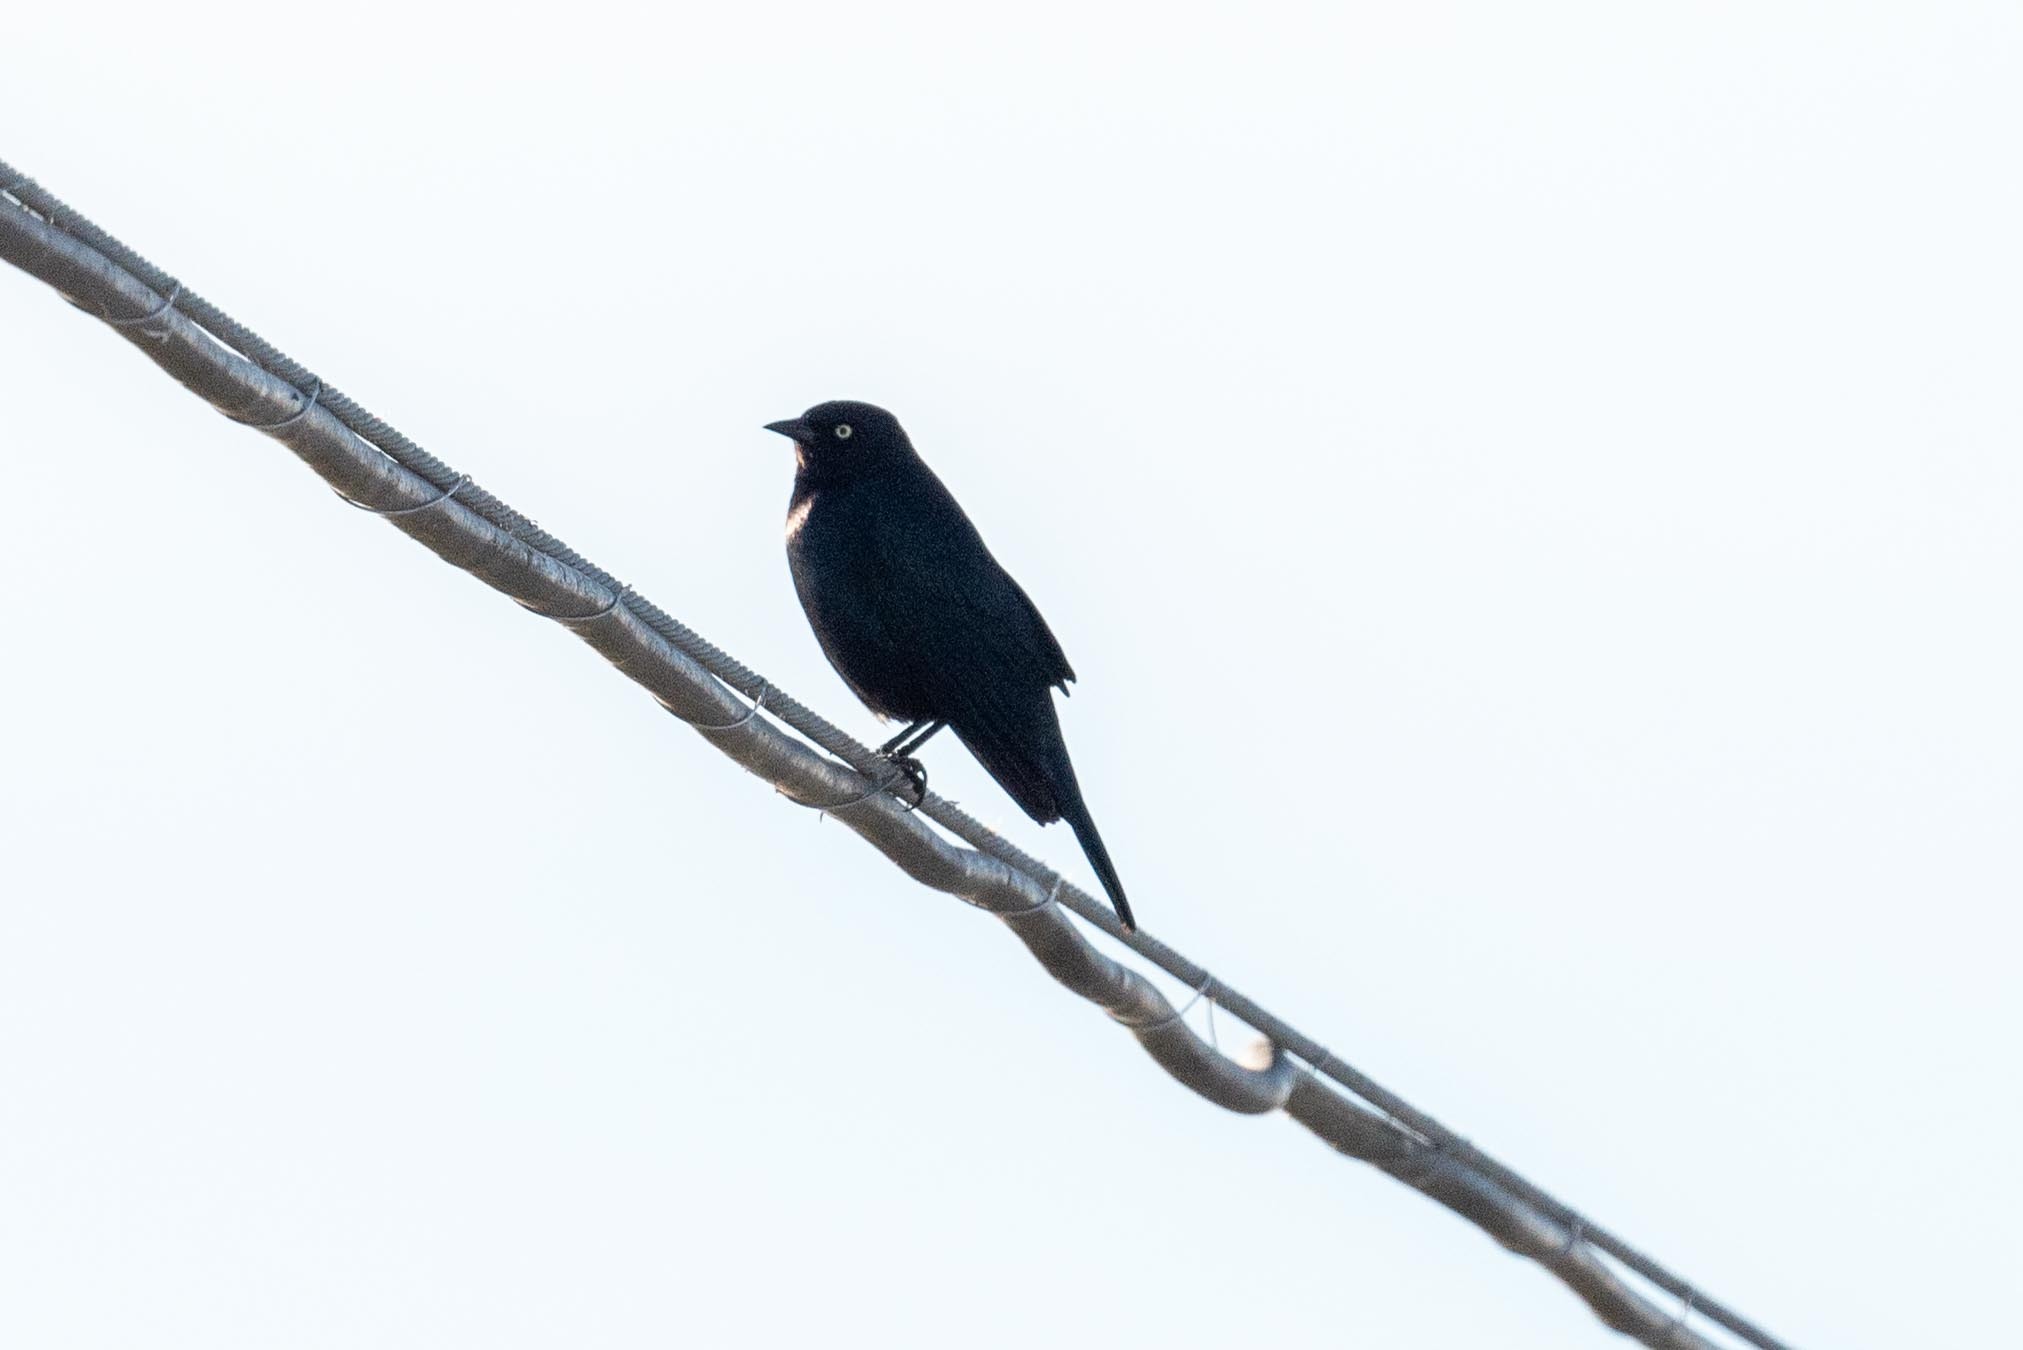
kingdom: Animalia
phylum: Chordata
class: Aves
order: Passeriformes
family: Icteridae
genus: Euphagus
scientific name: Euphagus cyanocephalus
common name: Brewer's blackbird
